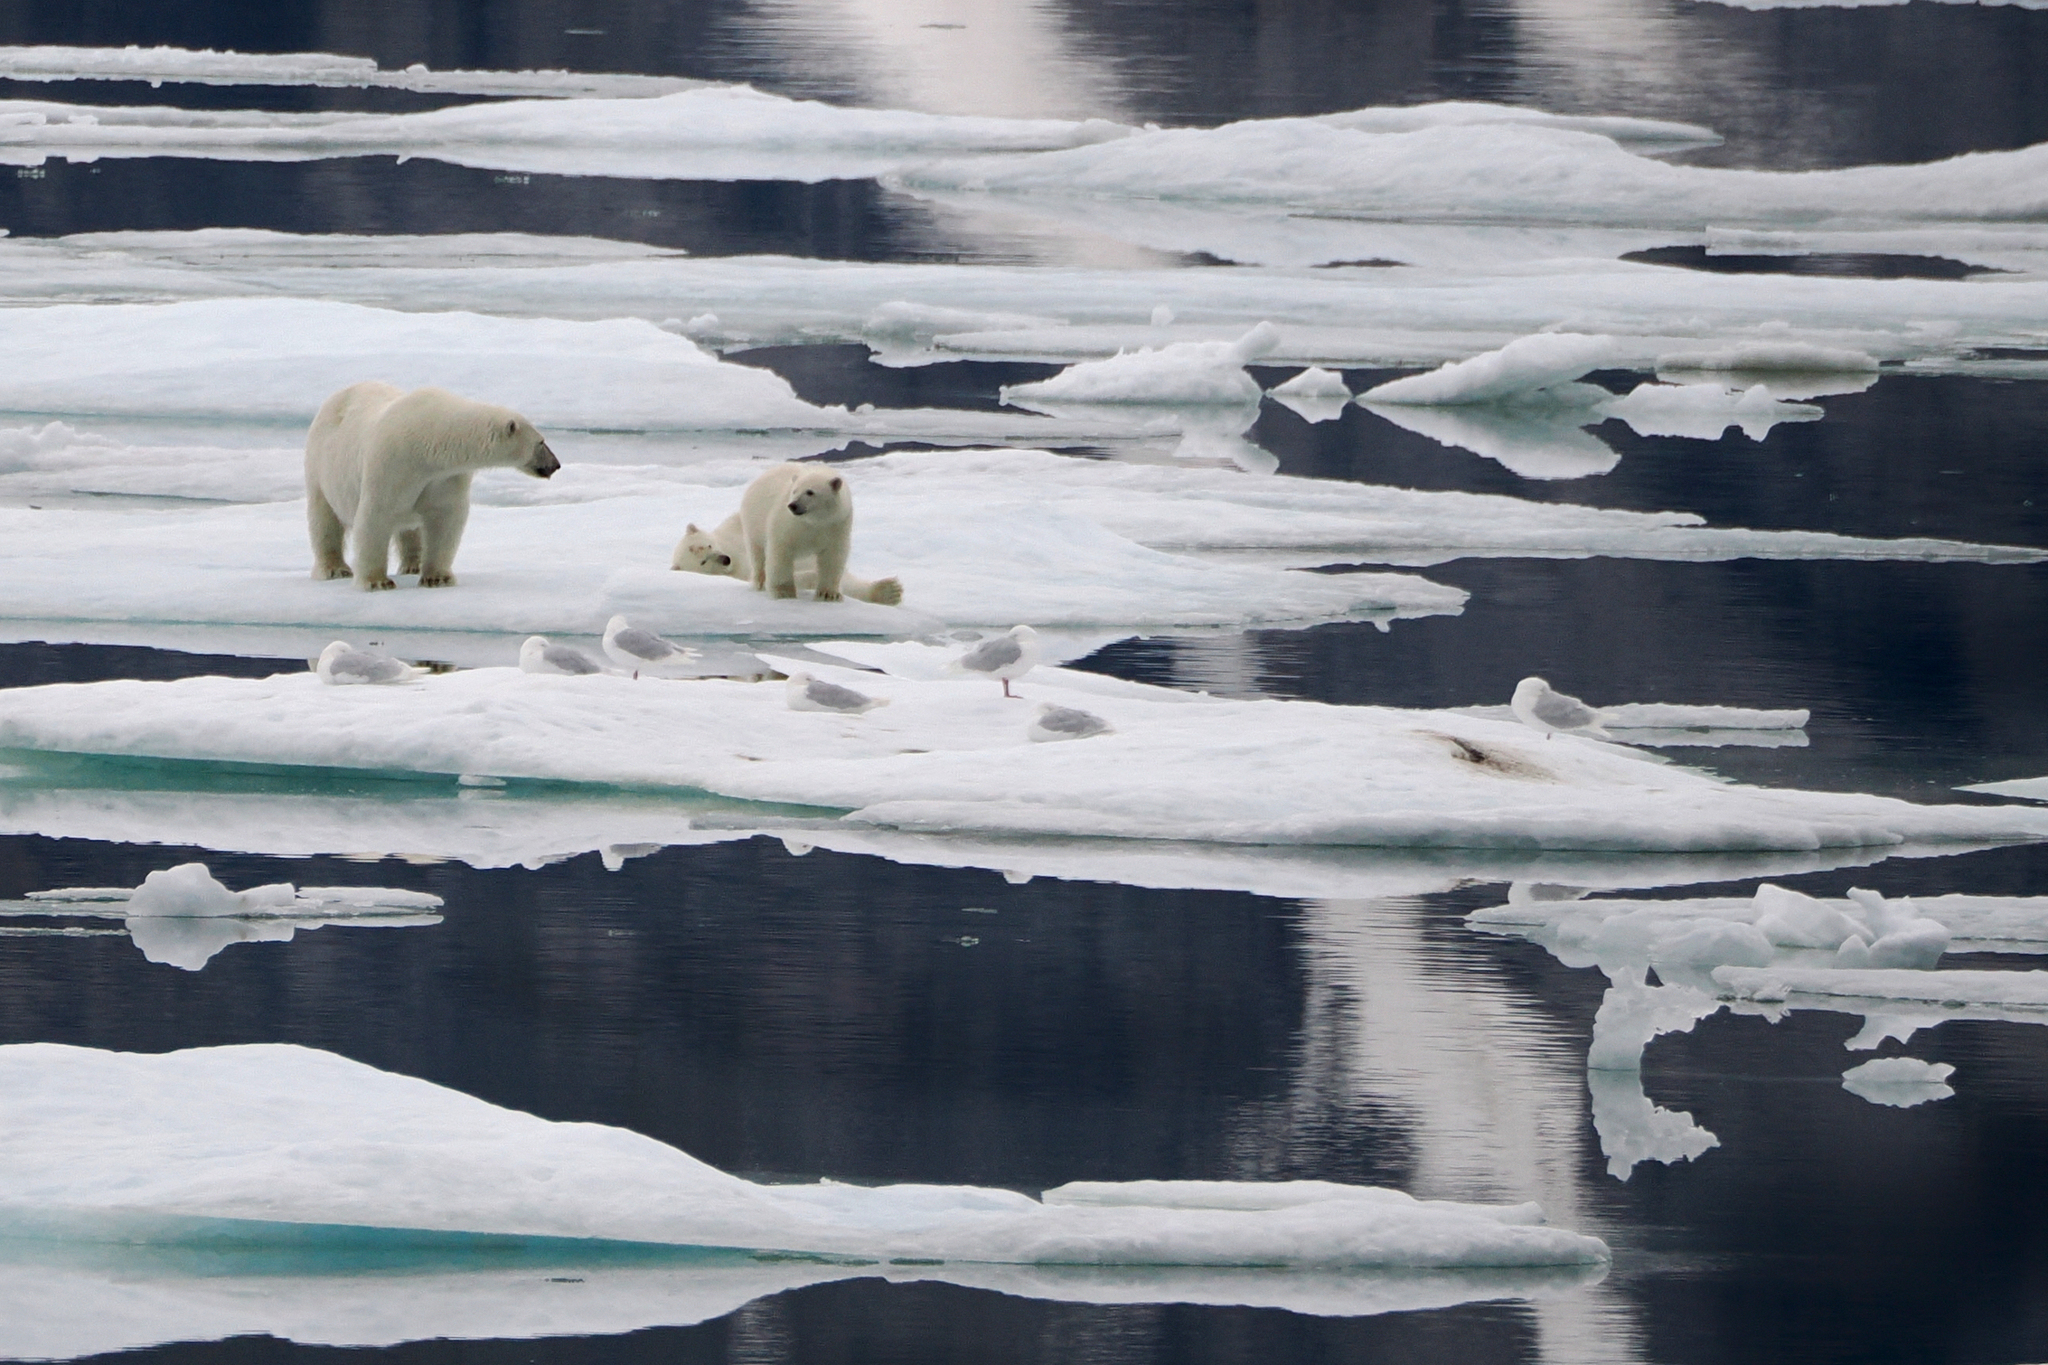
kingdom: Animalia
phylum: Chordata
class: Aves
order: Charadriiformes
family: Laridae
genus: Larus
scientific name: Larus hyperboreus
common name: Glaucous gull
